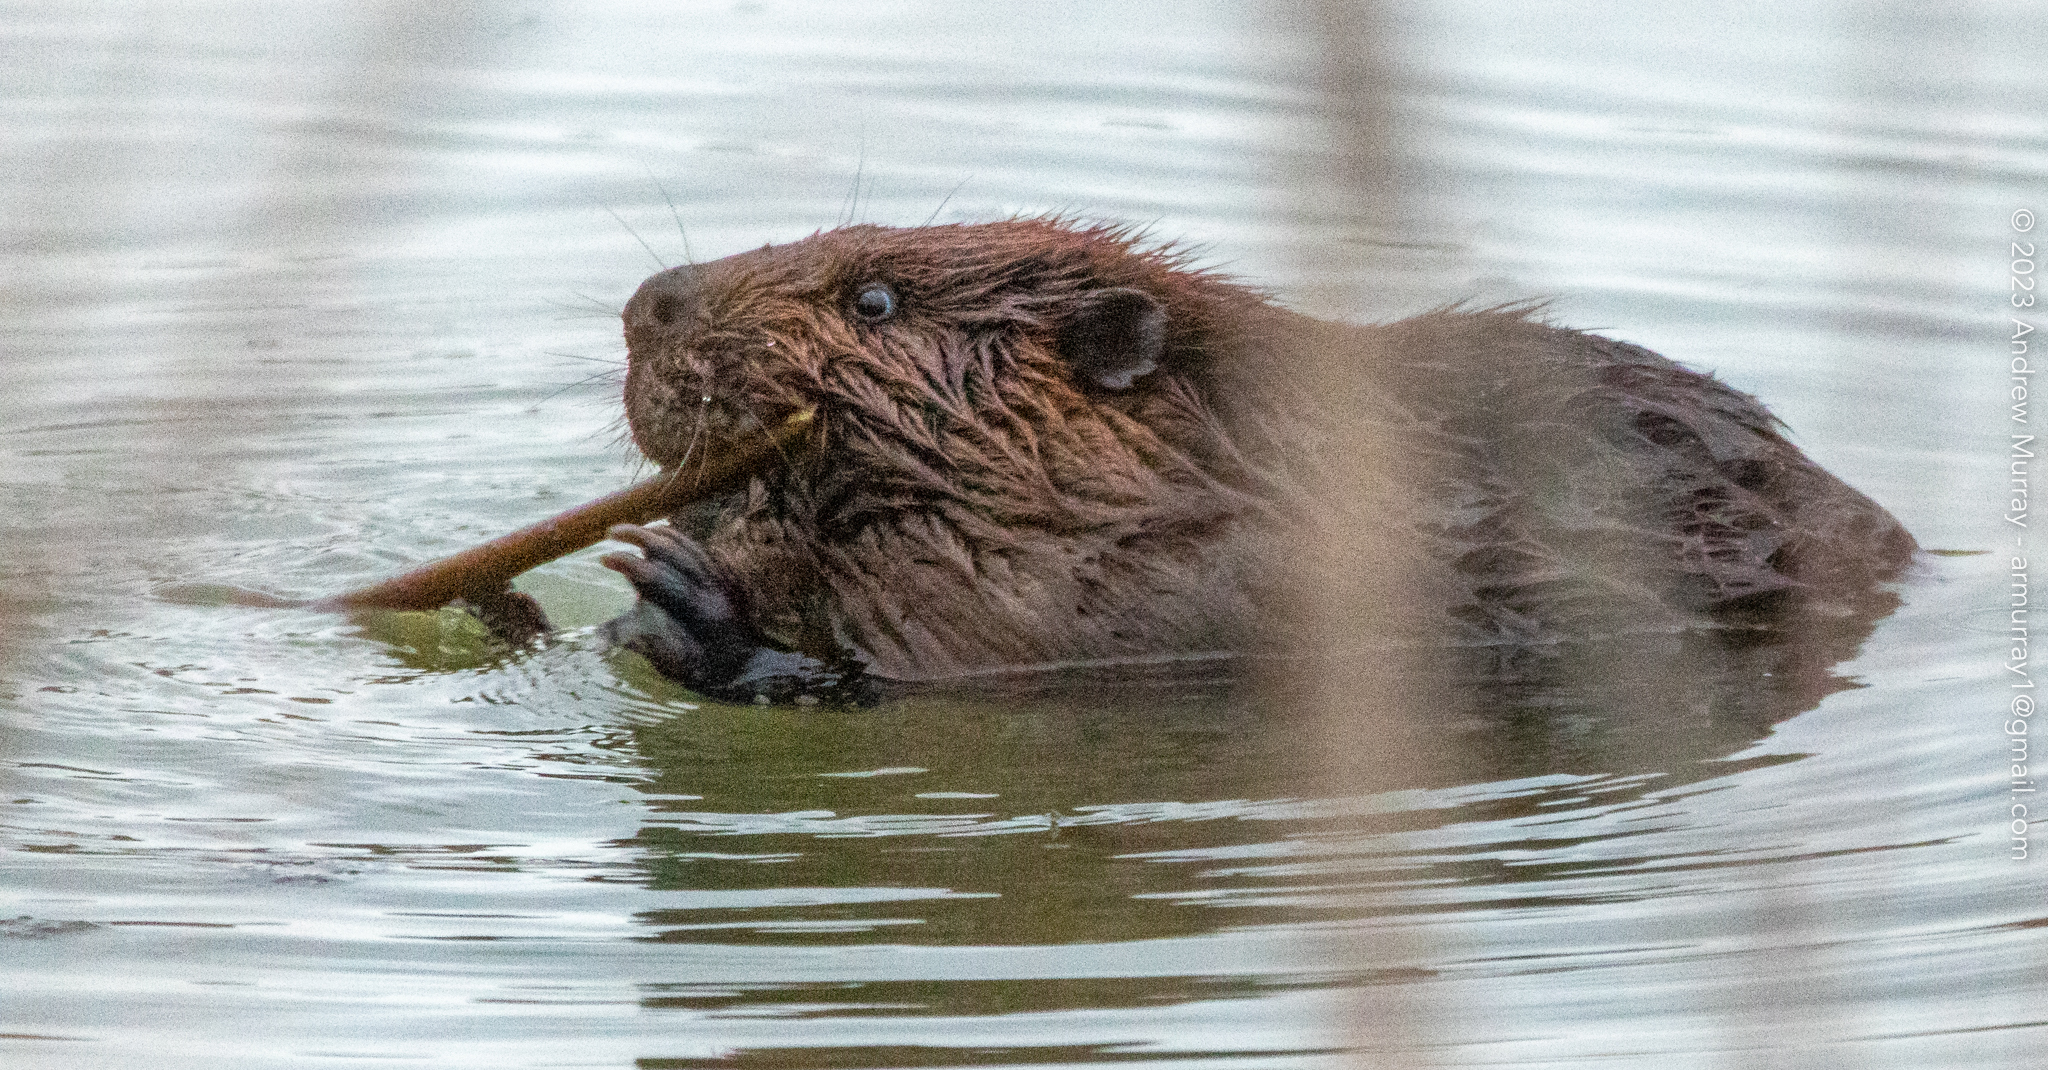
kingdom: Animalia
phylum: Chordata
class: Mammalia
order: Rodentia
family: Castoridae
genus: Castor
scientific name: Castor canadensis
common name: American beaver
